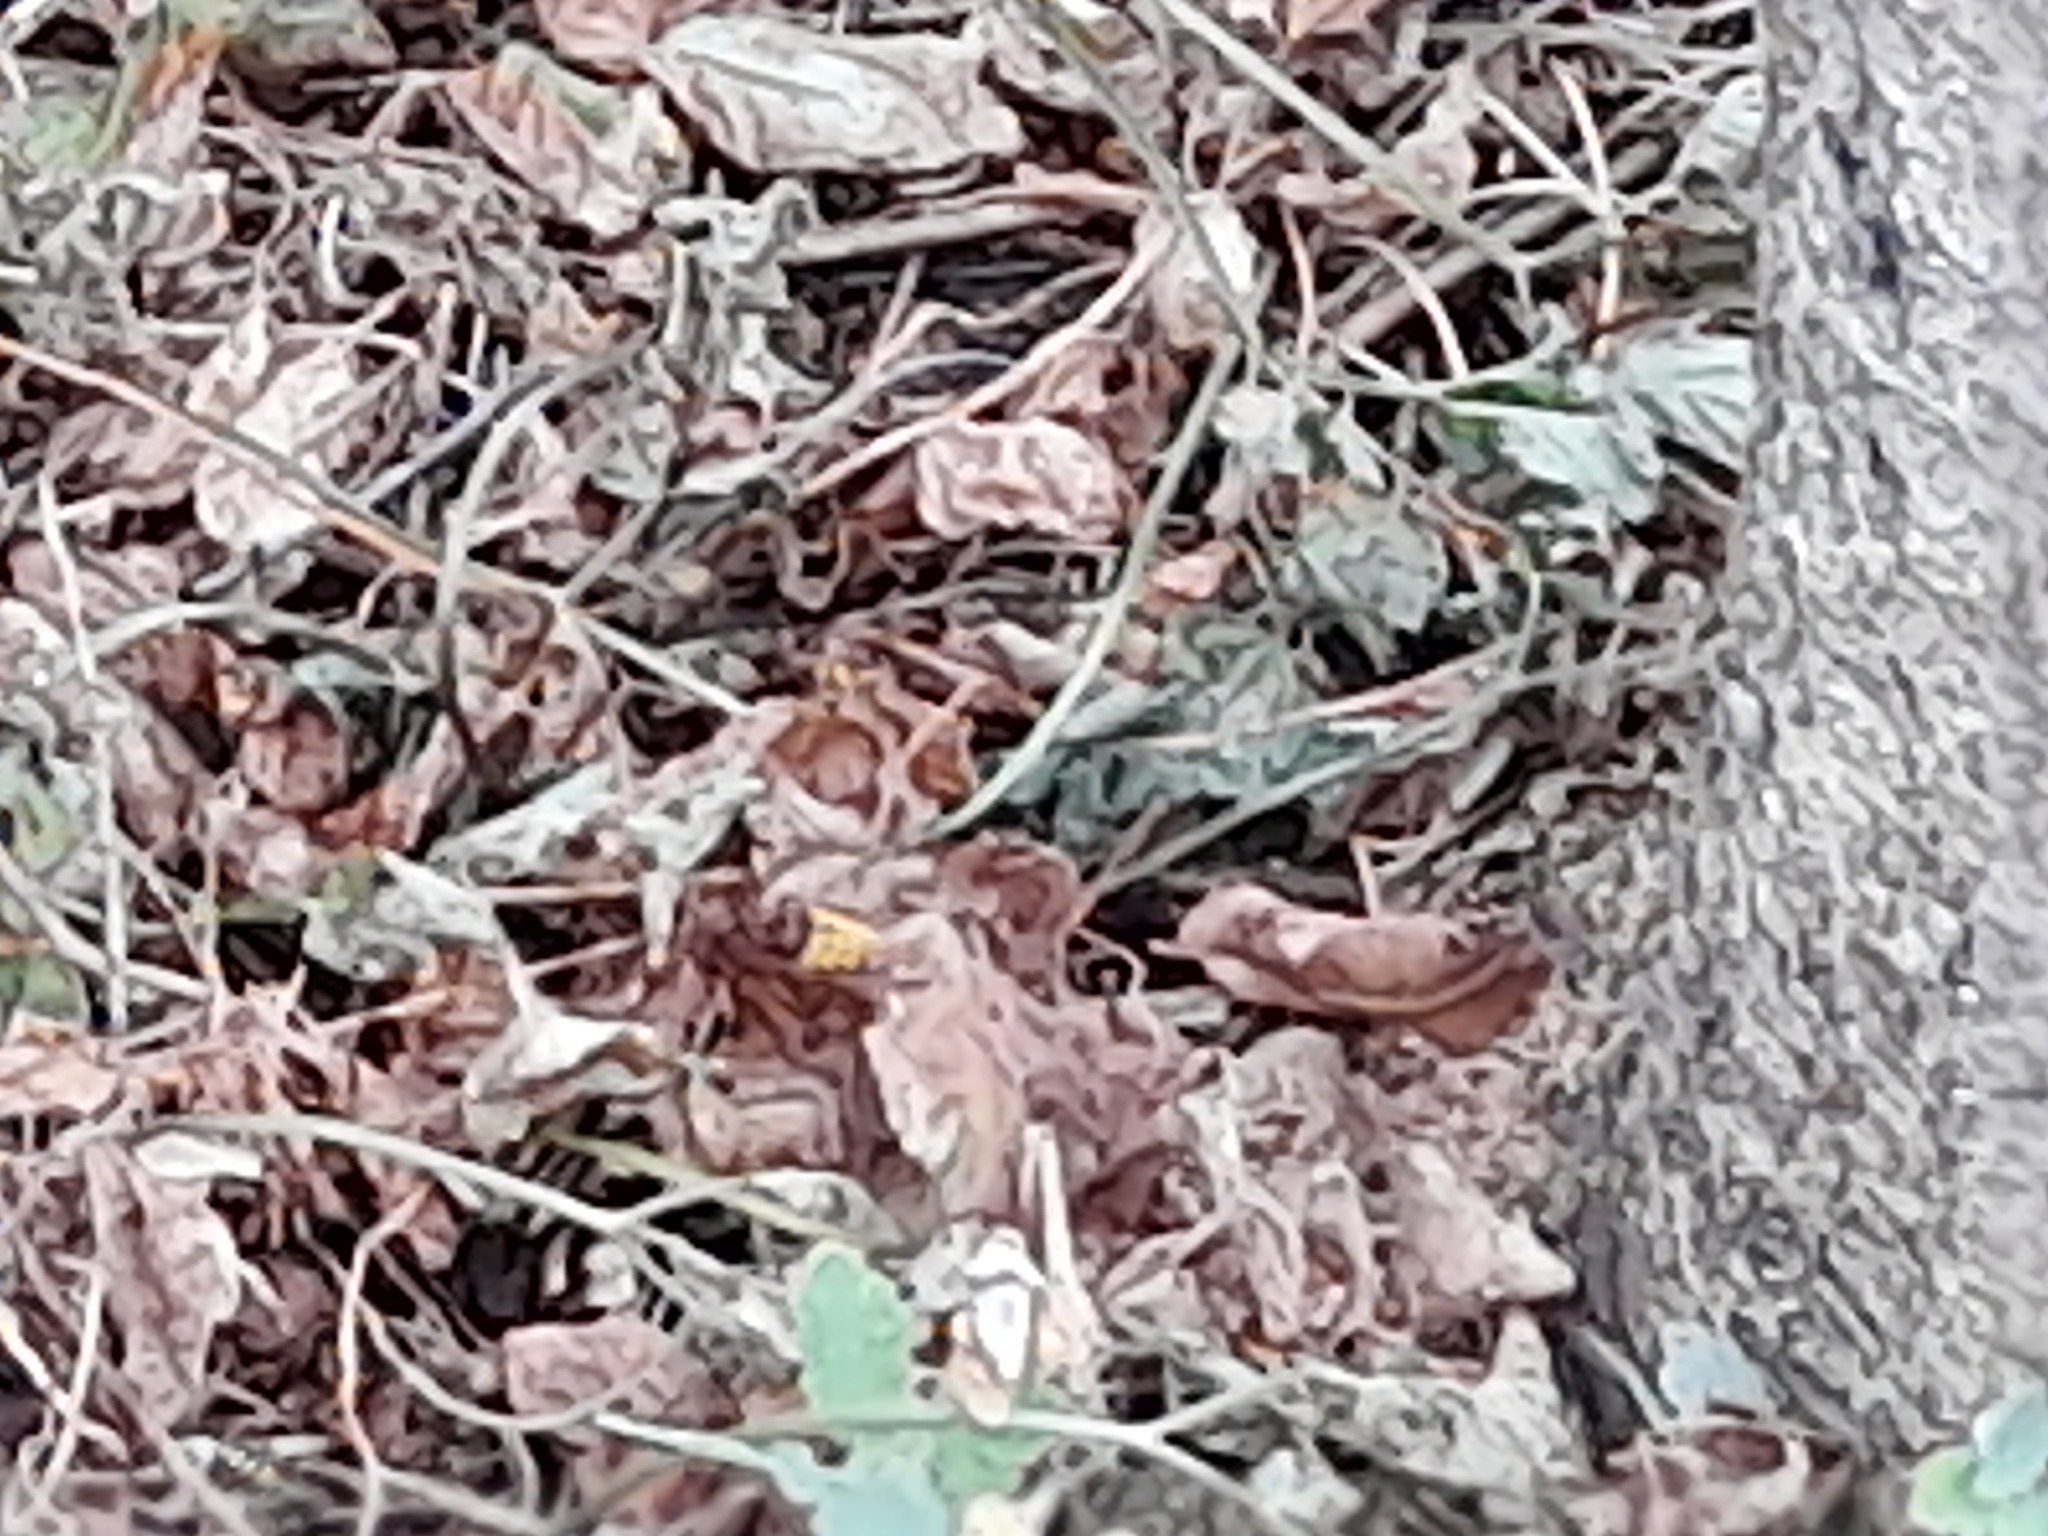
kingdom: Animalia
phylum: Arthropoda
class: Insecta
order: Hymenoptera
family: Vespidae
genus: Vespa
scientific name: Vespa crabro
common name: Hornet
